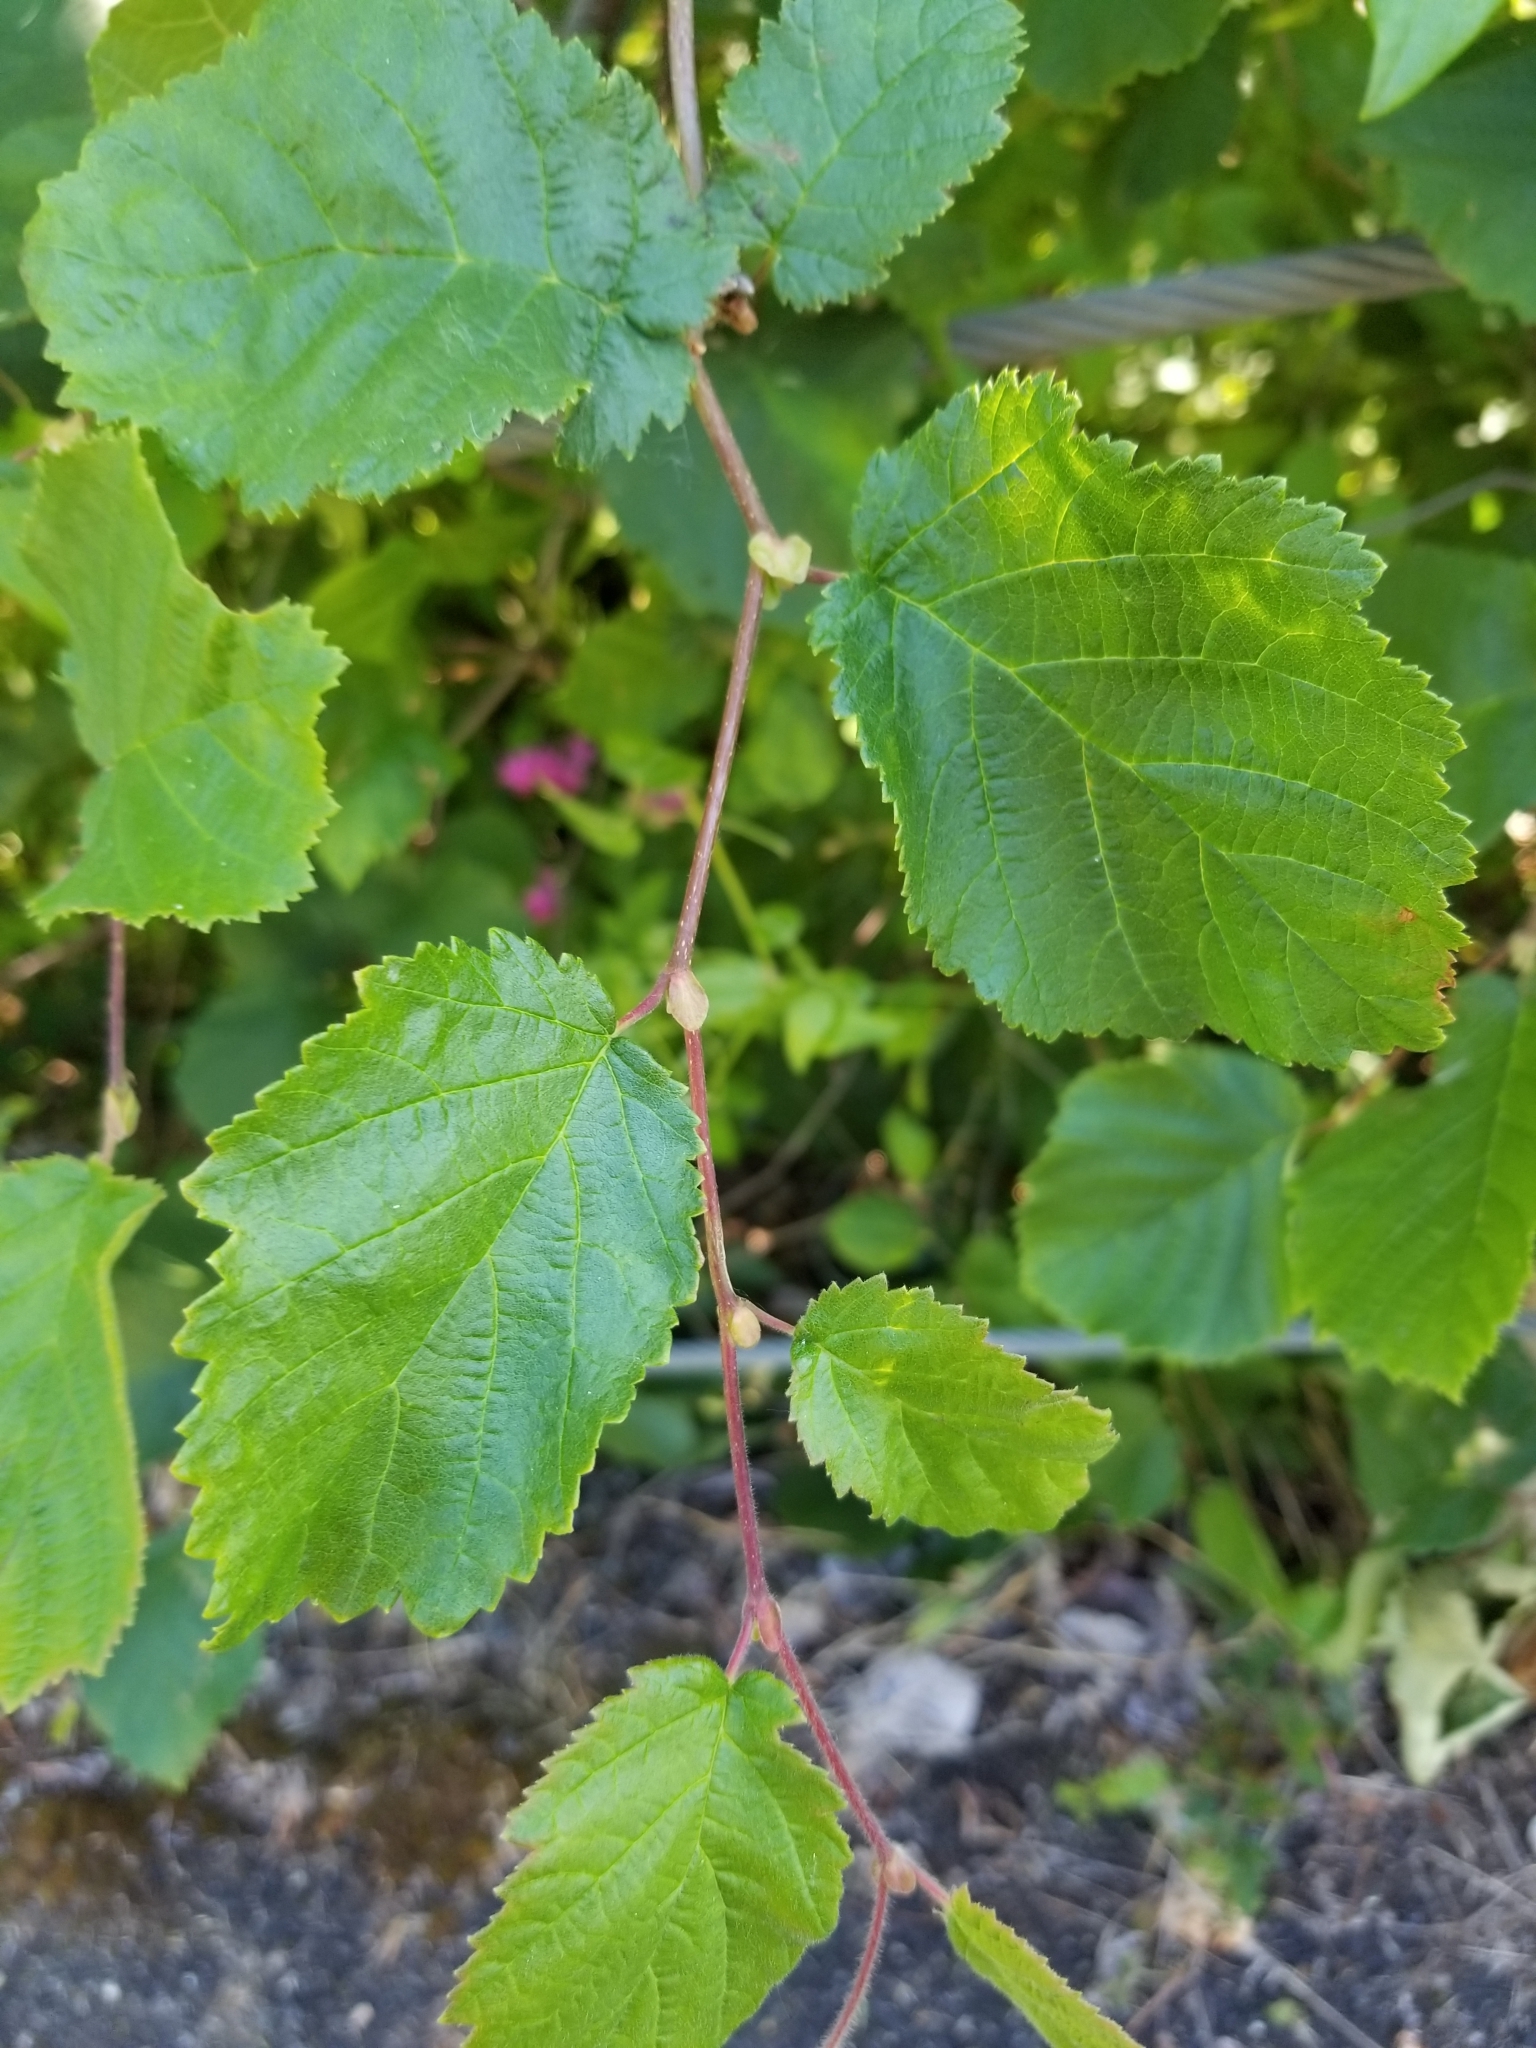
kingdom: Plantae
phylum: Tracheophyta
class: Magnoliopsida
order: Fagales
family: Betulaceae
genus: Corylus
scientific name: Corylus cornuta
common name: Beaked hazel
